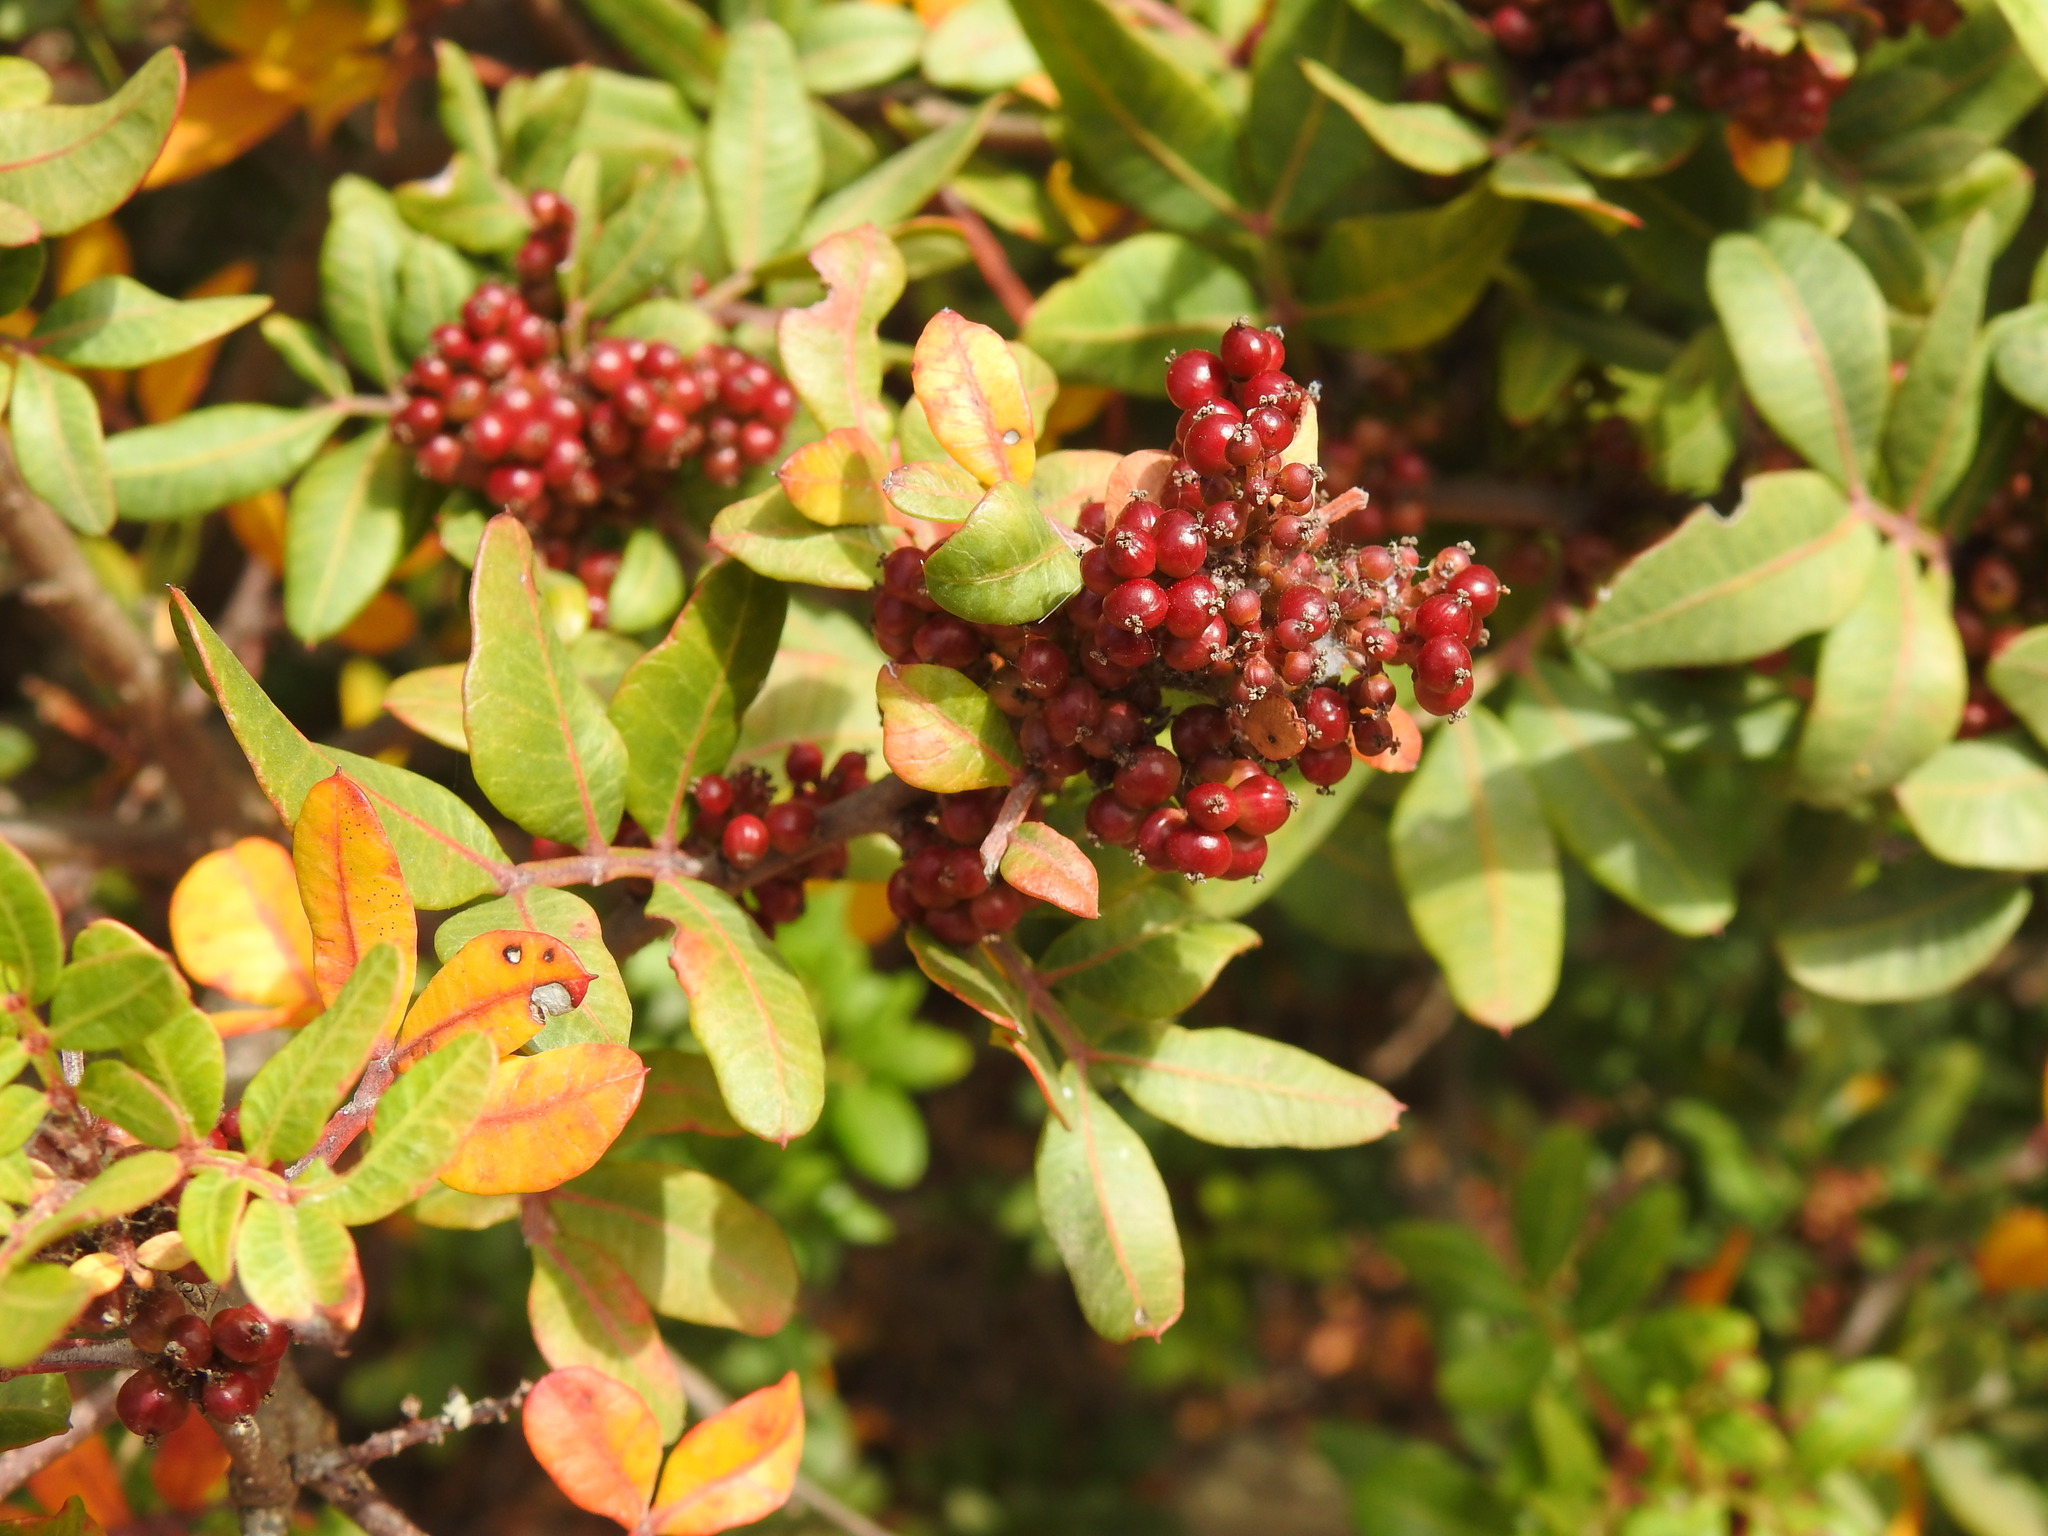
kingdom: Plantae
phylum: Tracheophyta
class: Magnoliopsida
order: Sapindales
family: Anacardiaceae
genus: Pistacia
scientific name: Pistacia lentiscus
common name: Lentisk
